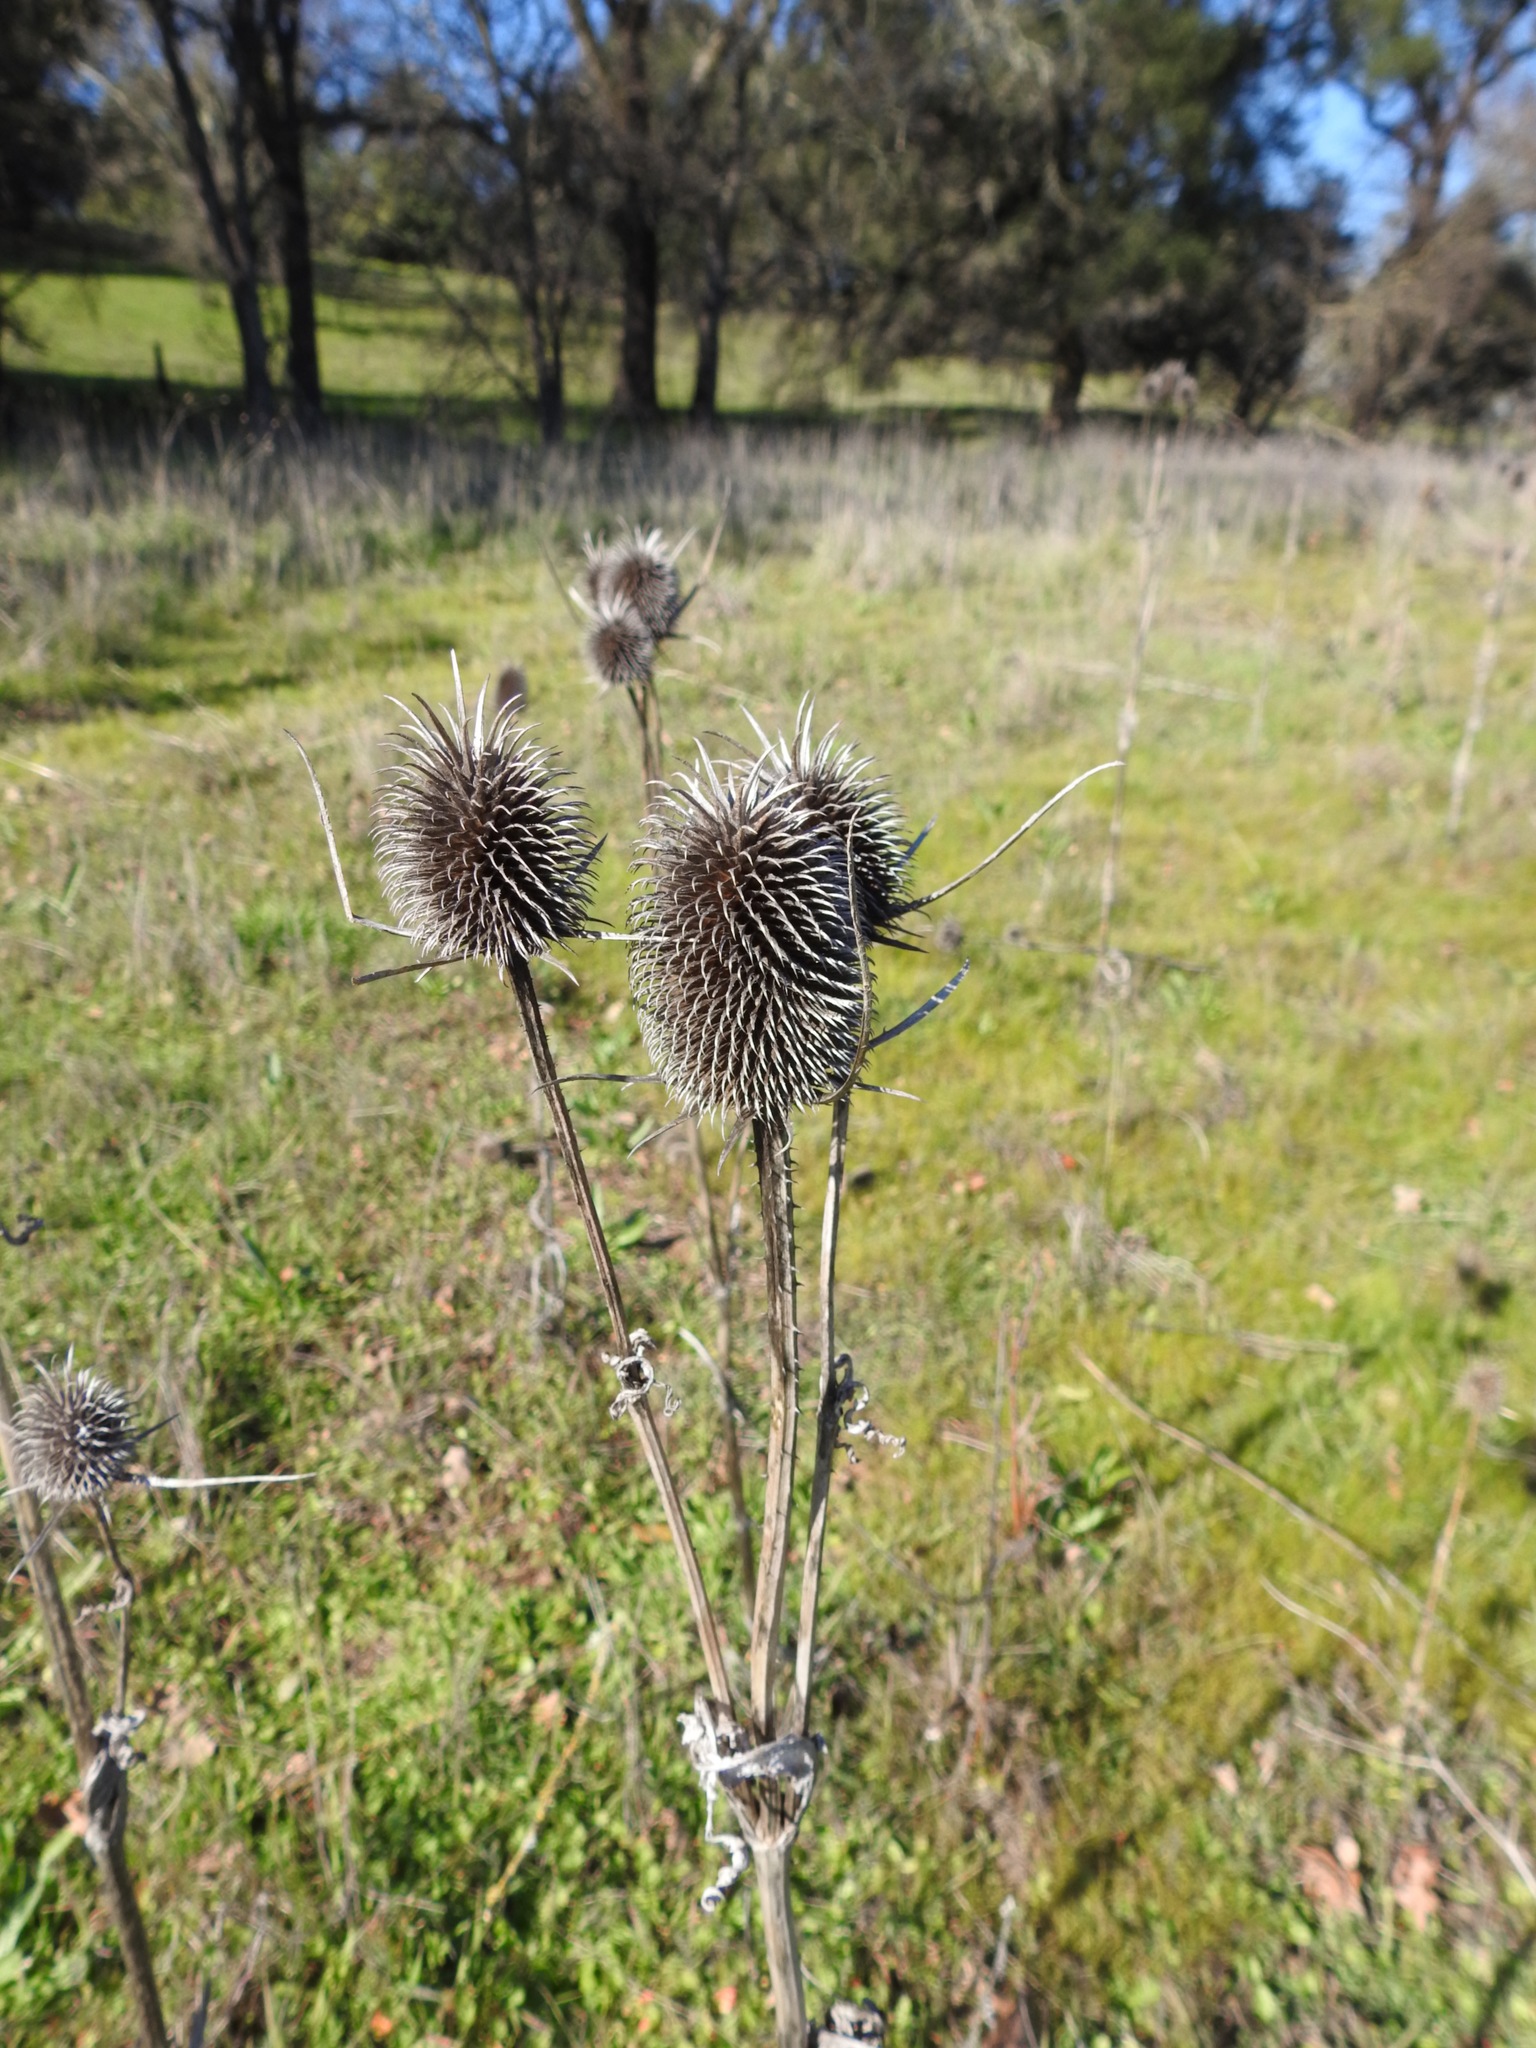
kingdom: Plantae
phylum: Tracheophyta
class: Magnoliopsida
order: Dipsacales
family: Caprifoliaceae
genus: Dipsacus
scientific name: Dipsacus sativus
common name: Fuller's teasel
